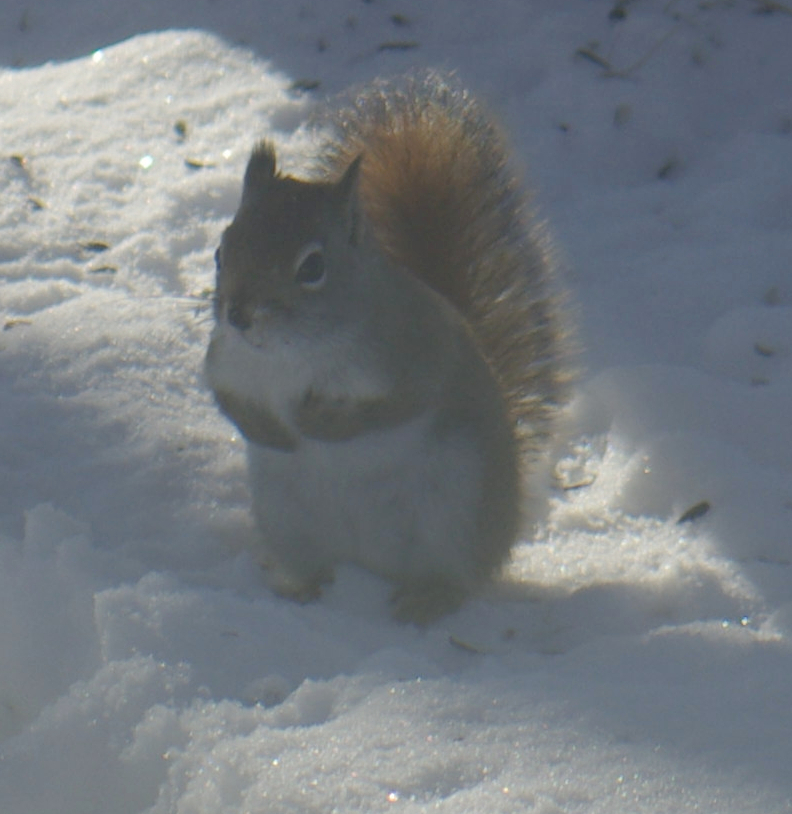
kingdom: Animalia
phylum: Chordata
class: Mammalia
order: Rodentia
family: Sciuridae
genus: Tamiasciurus
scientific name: Tamiasciurus hudsonicus
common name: Red squirrel
